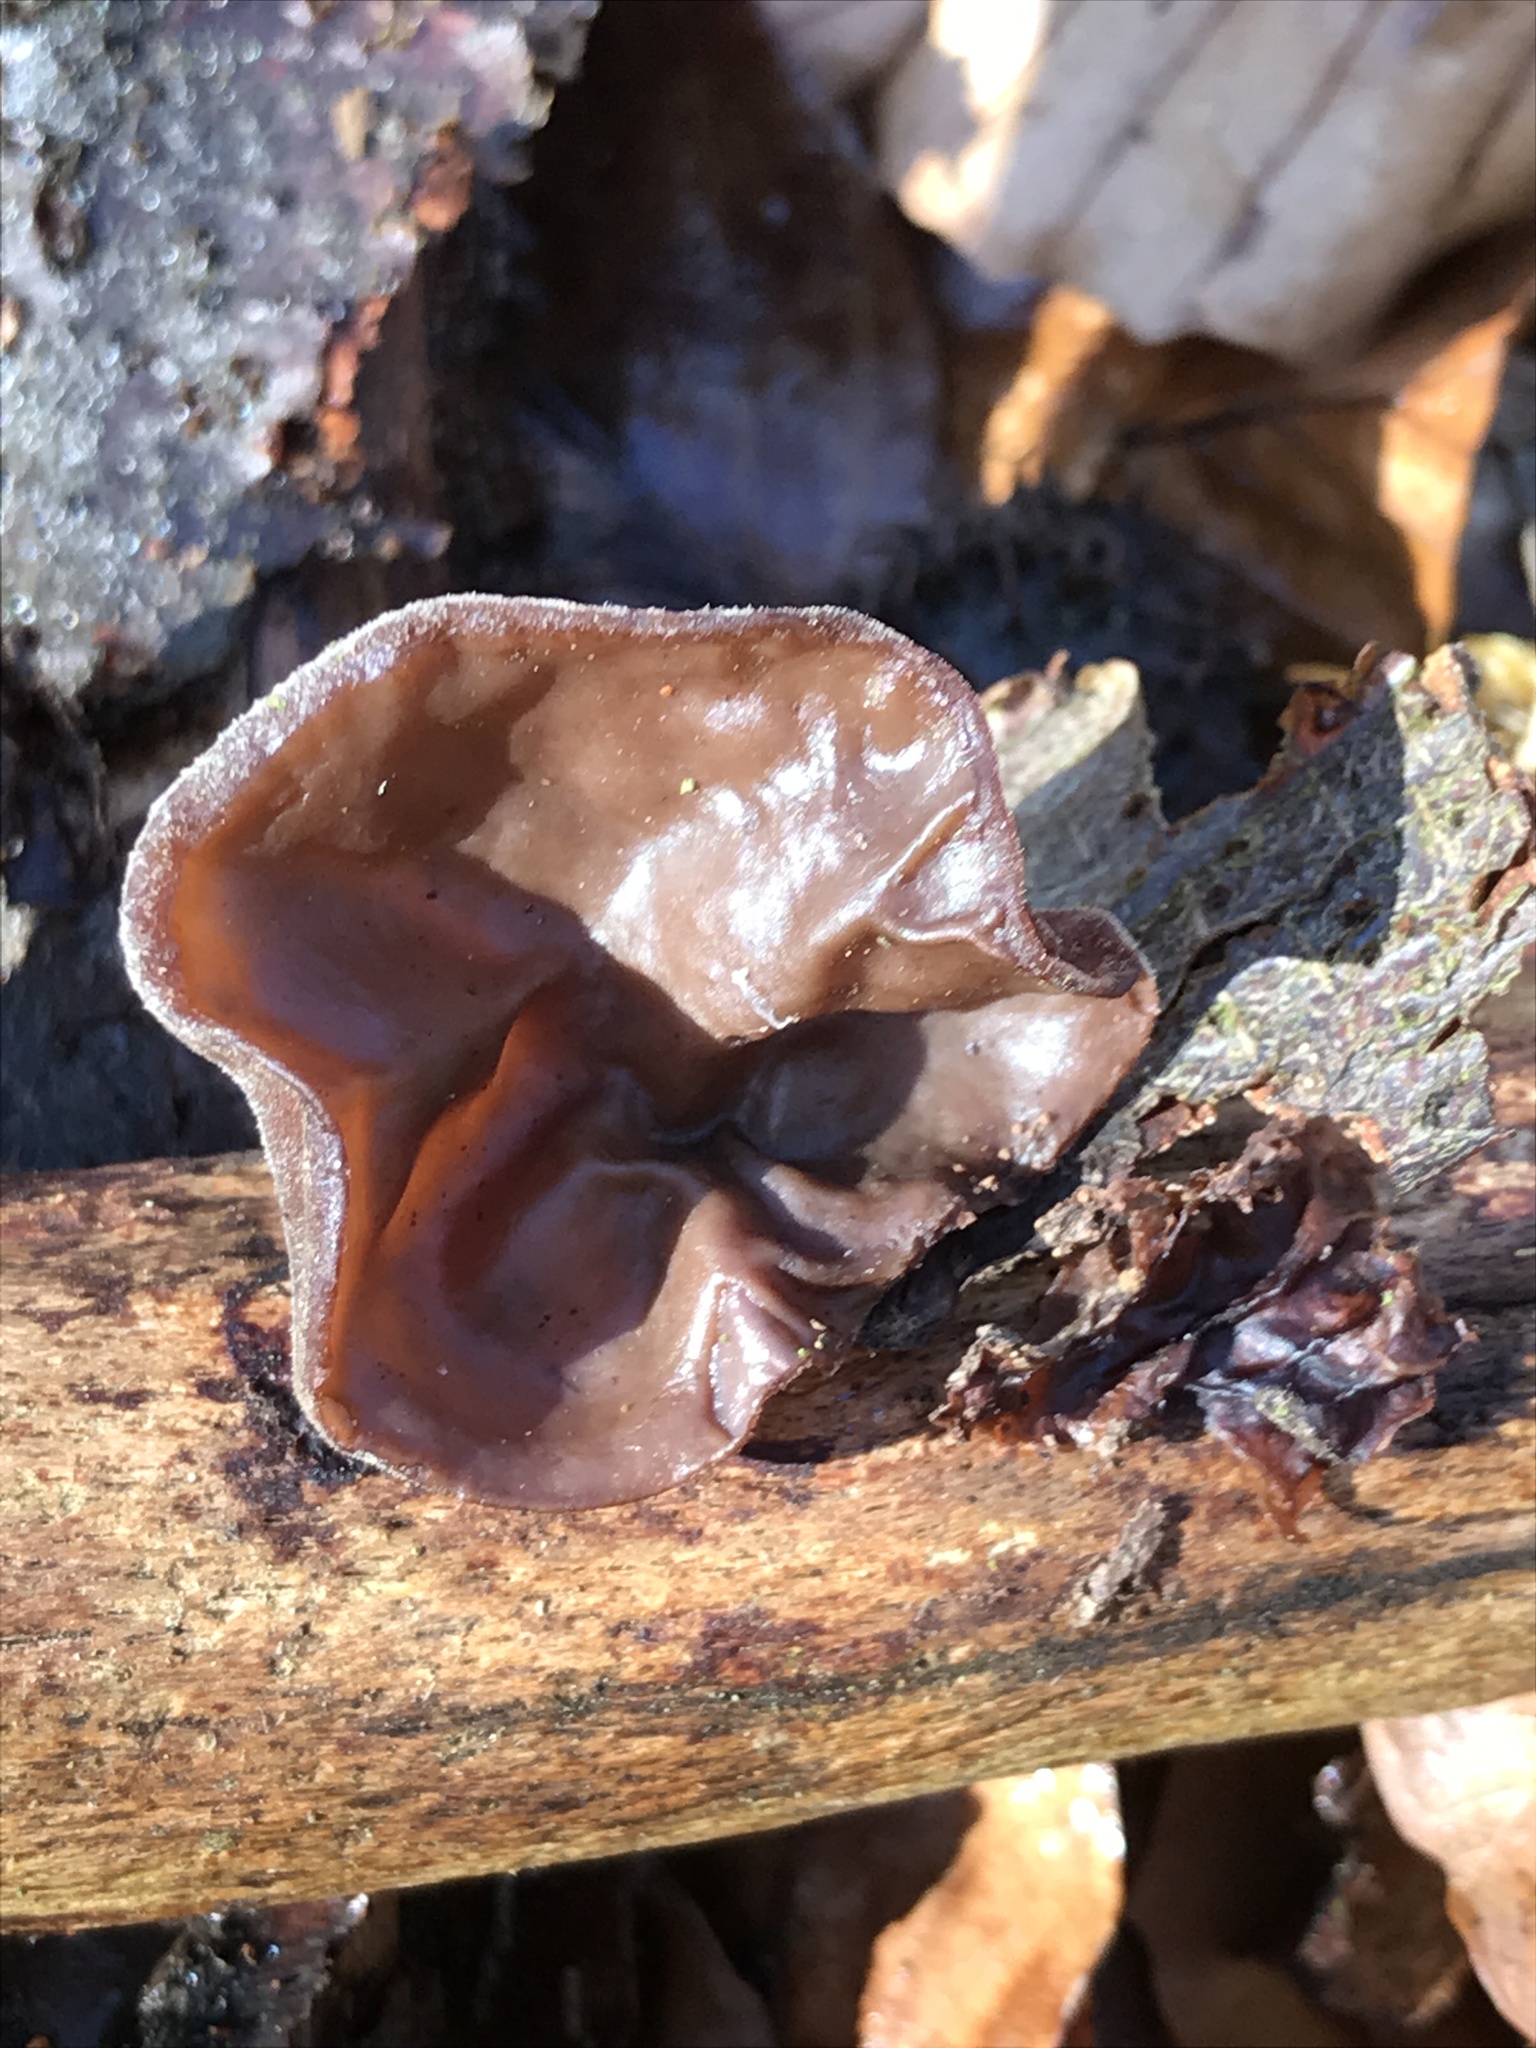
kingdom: Fungi
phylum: Basidiomycota
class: Agaricomycetes
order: Auriculariales
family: Auriculariaceae
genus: Auricularia
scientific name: Auricularia auricula-judae
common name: Jelly ear
